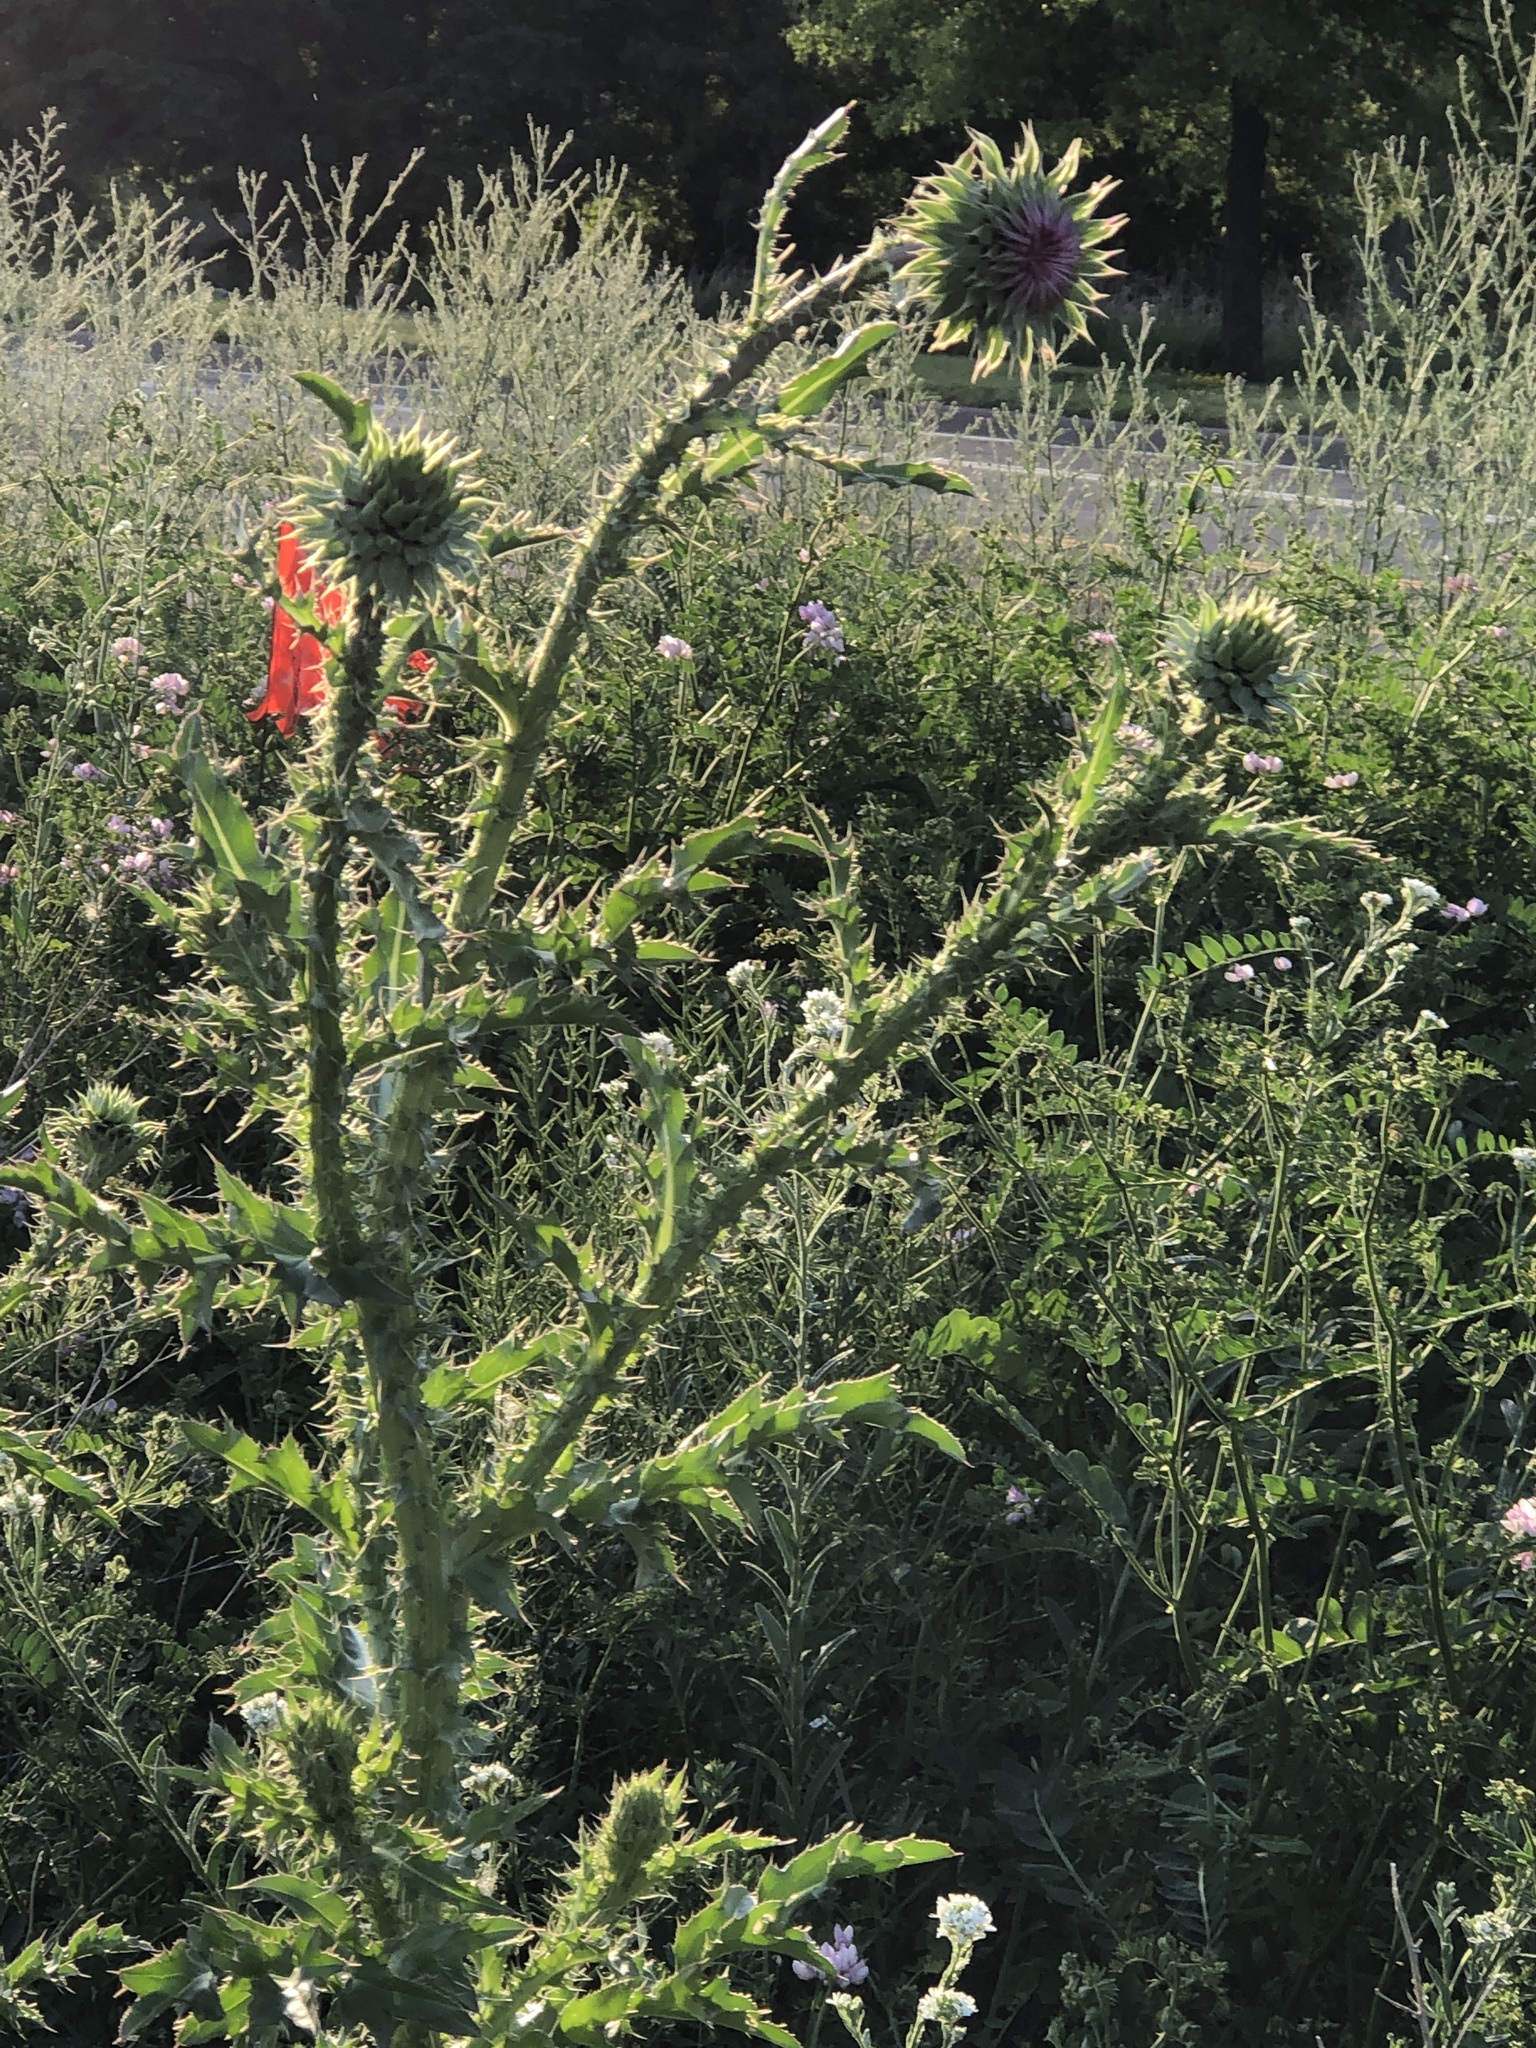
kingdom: Plantae
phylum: Tracheophyta
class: Magnoliopsida
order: Asterales
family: Asteraceae
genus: Carduus
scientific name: Carduus nutans
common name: Musk thistle
